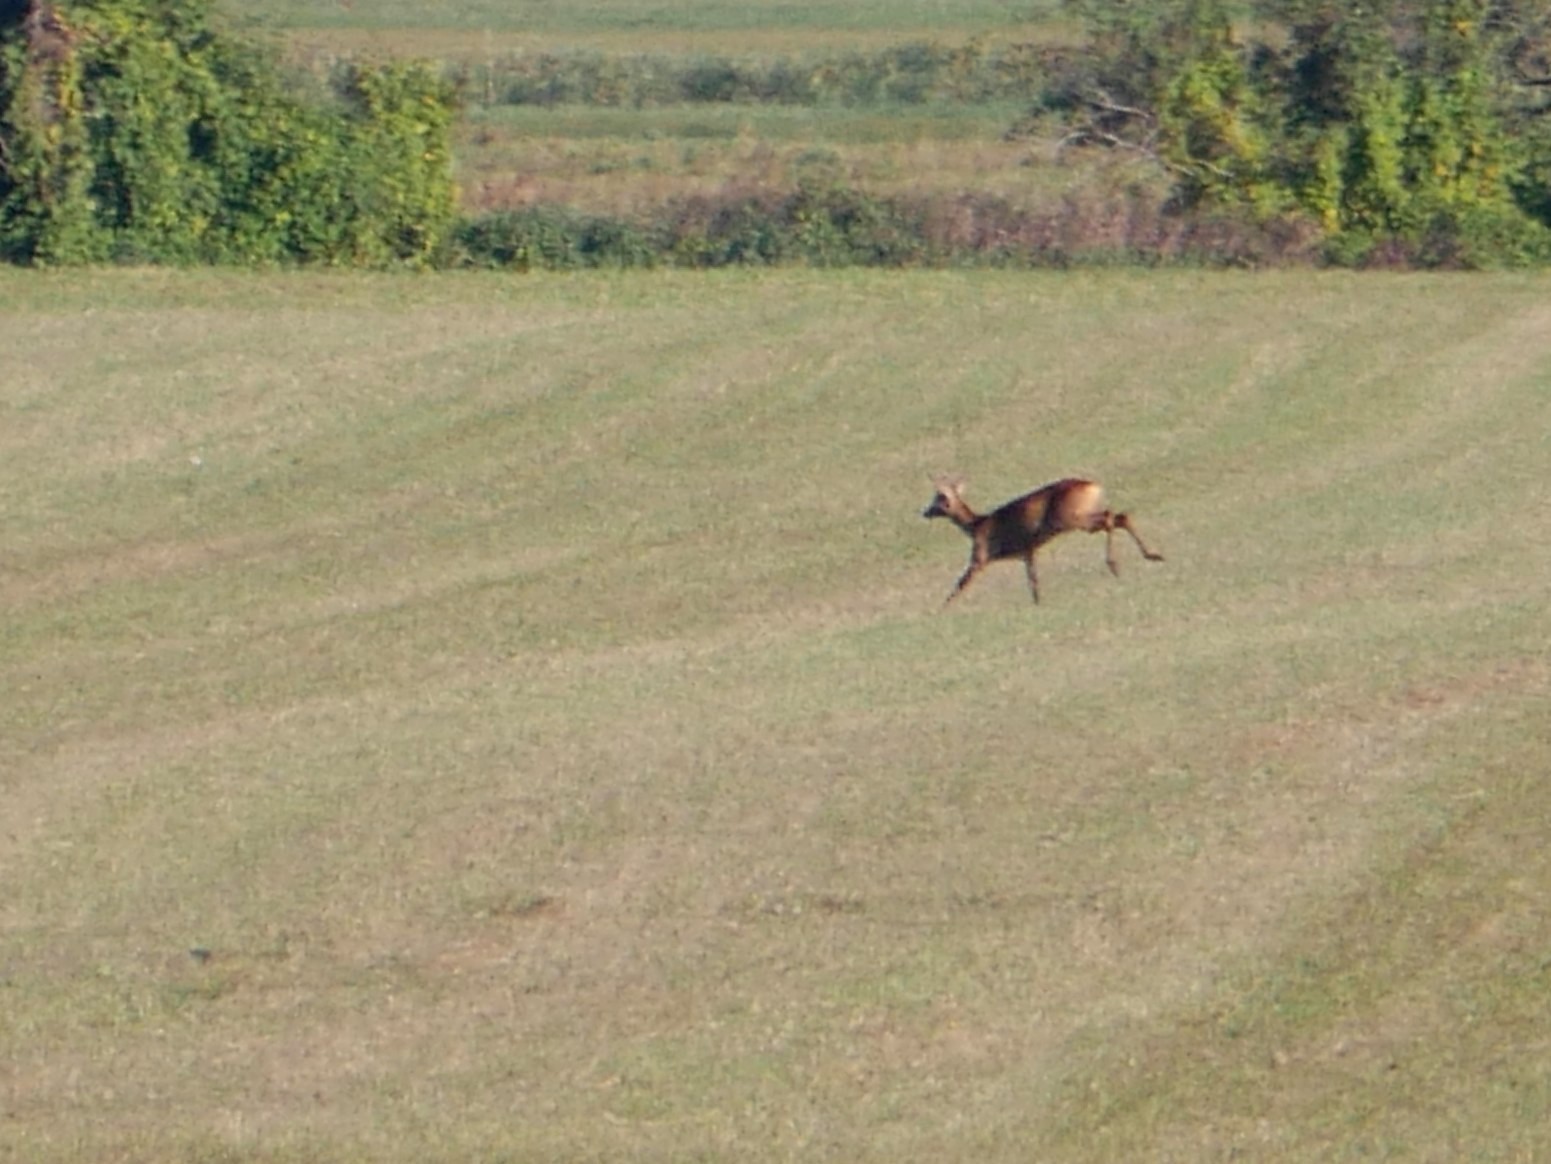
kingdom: Animalia
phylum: Chordata
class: Mammalia
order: Artiodactyla
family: Cervidae
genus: Capreolus
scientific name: Capreolus capreolus
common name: Western roe deer
